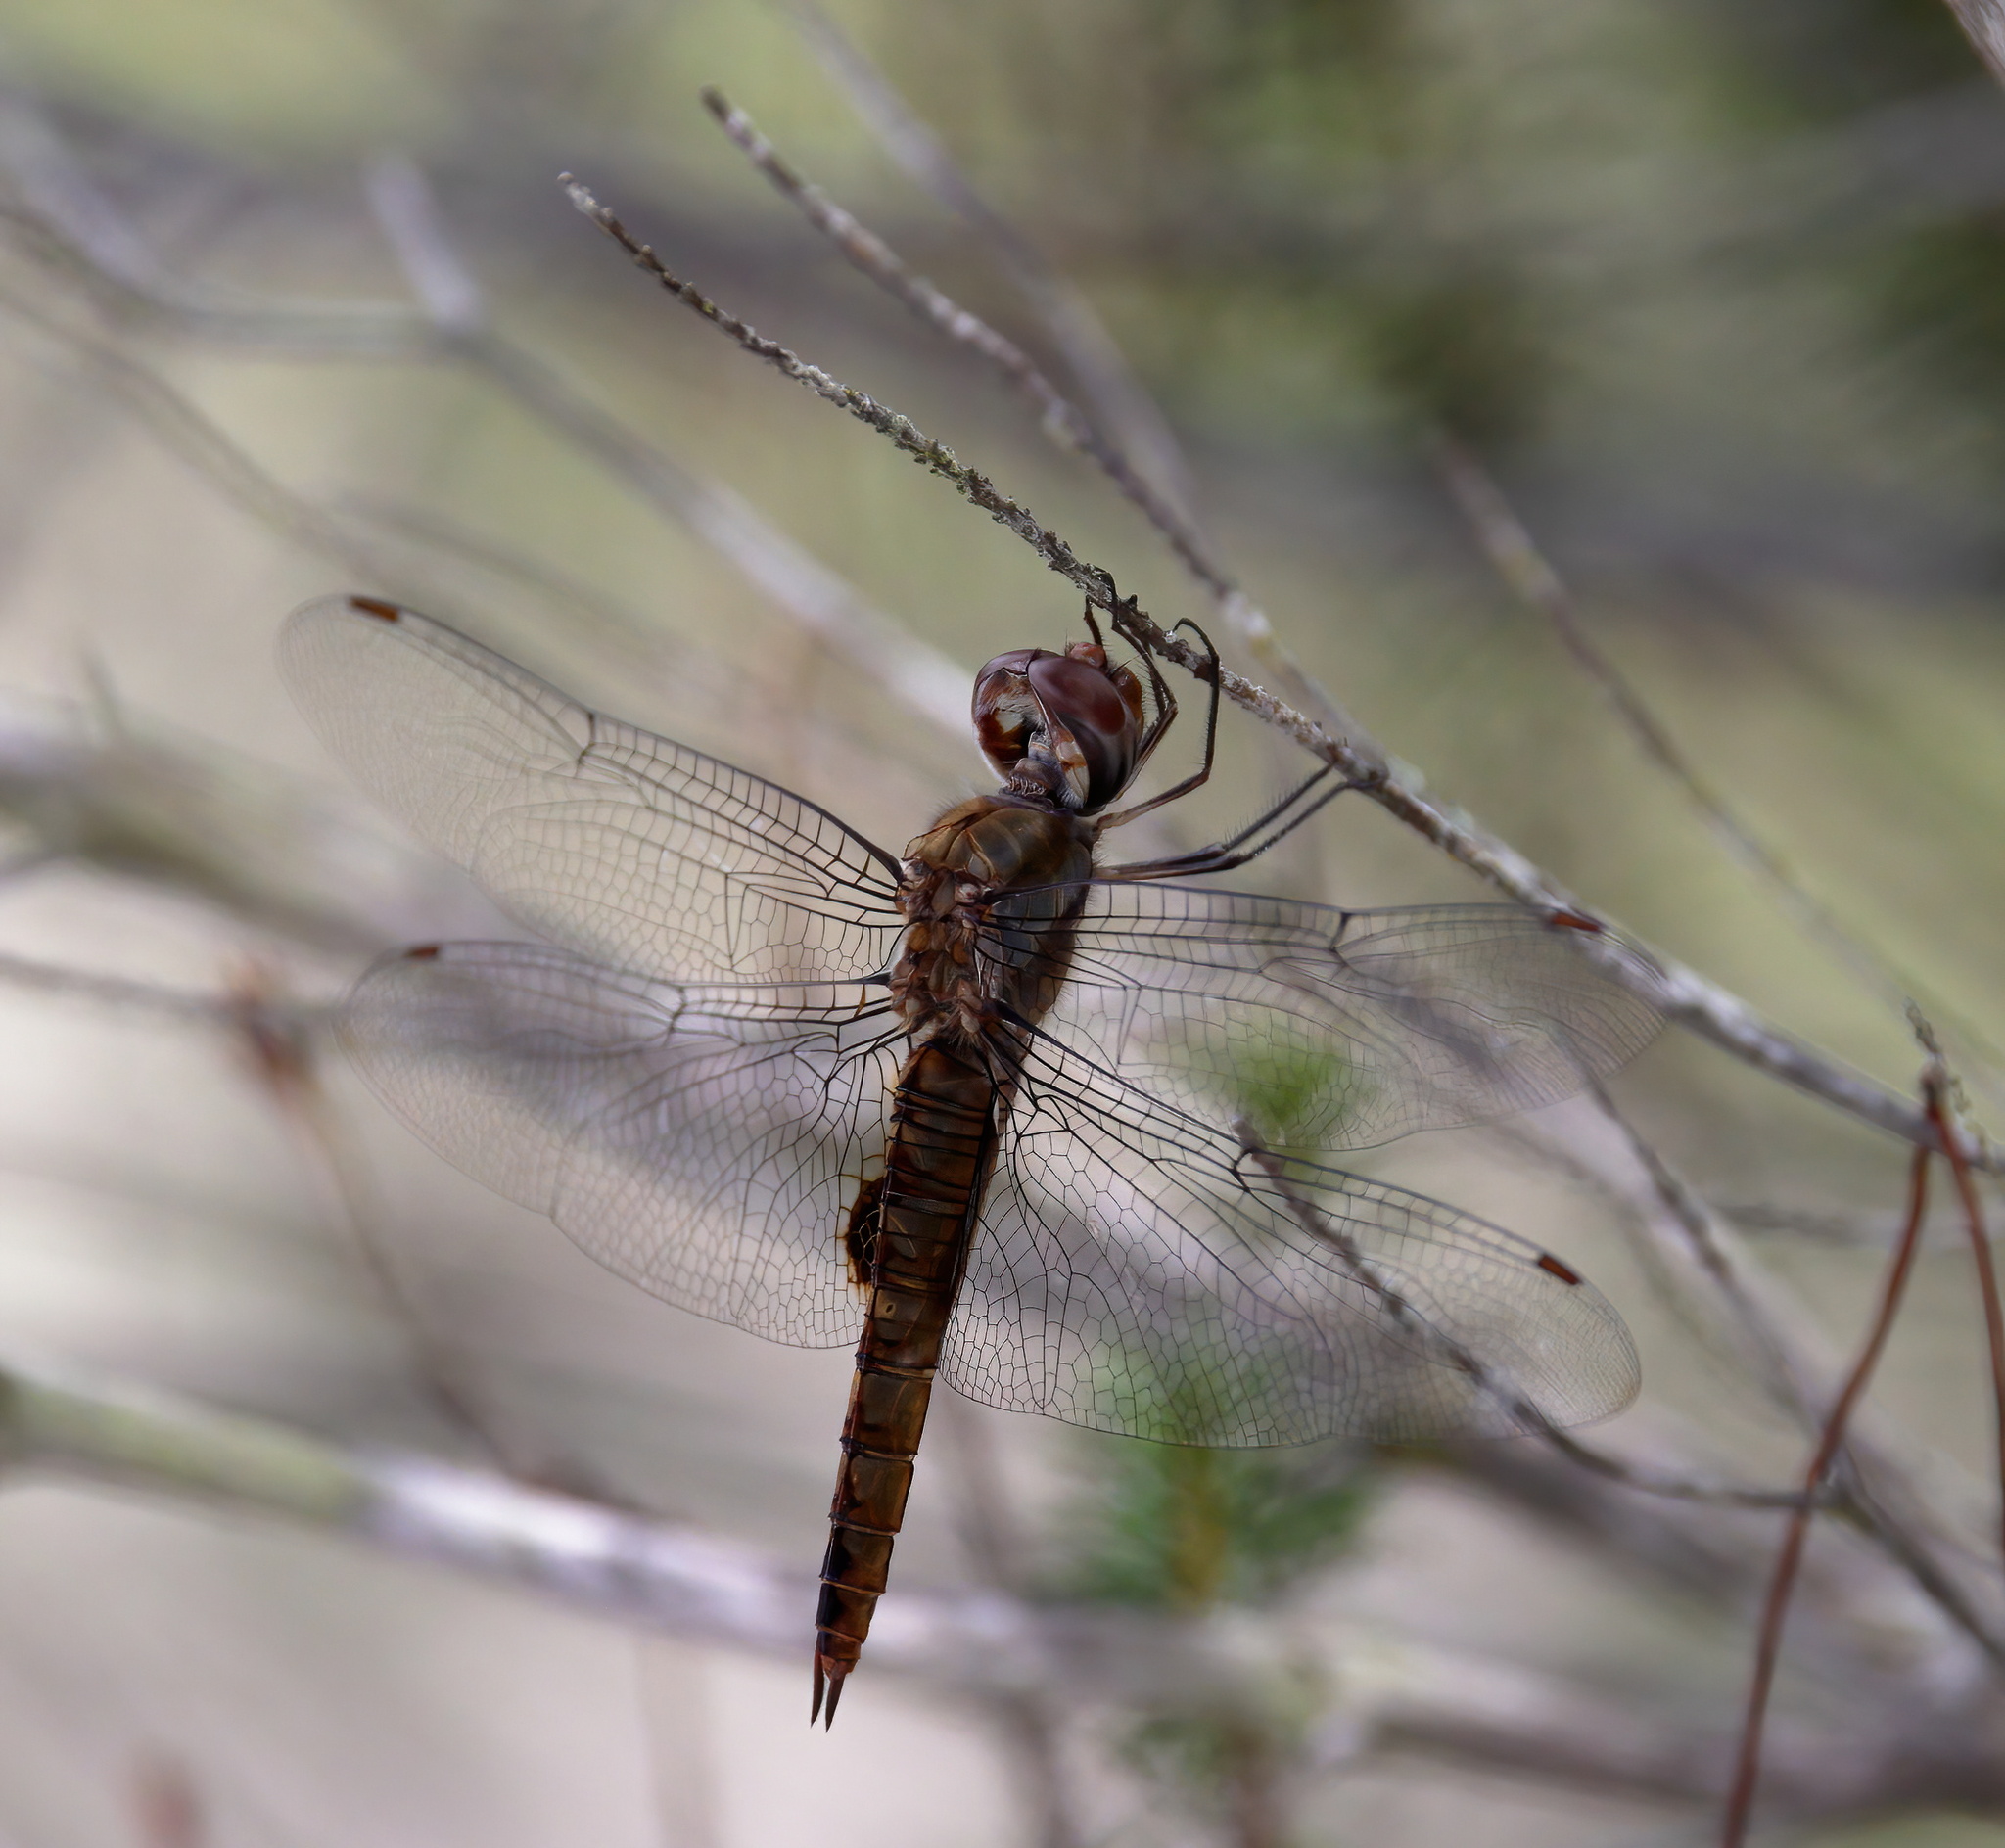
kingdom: Animalia
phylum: Arthropoda
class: Insecta
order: Odonata
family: Libellulidae
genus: Pantala
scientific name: Pantala hymenaea
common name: Spot-winged glider
